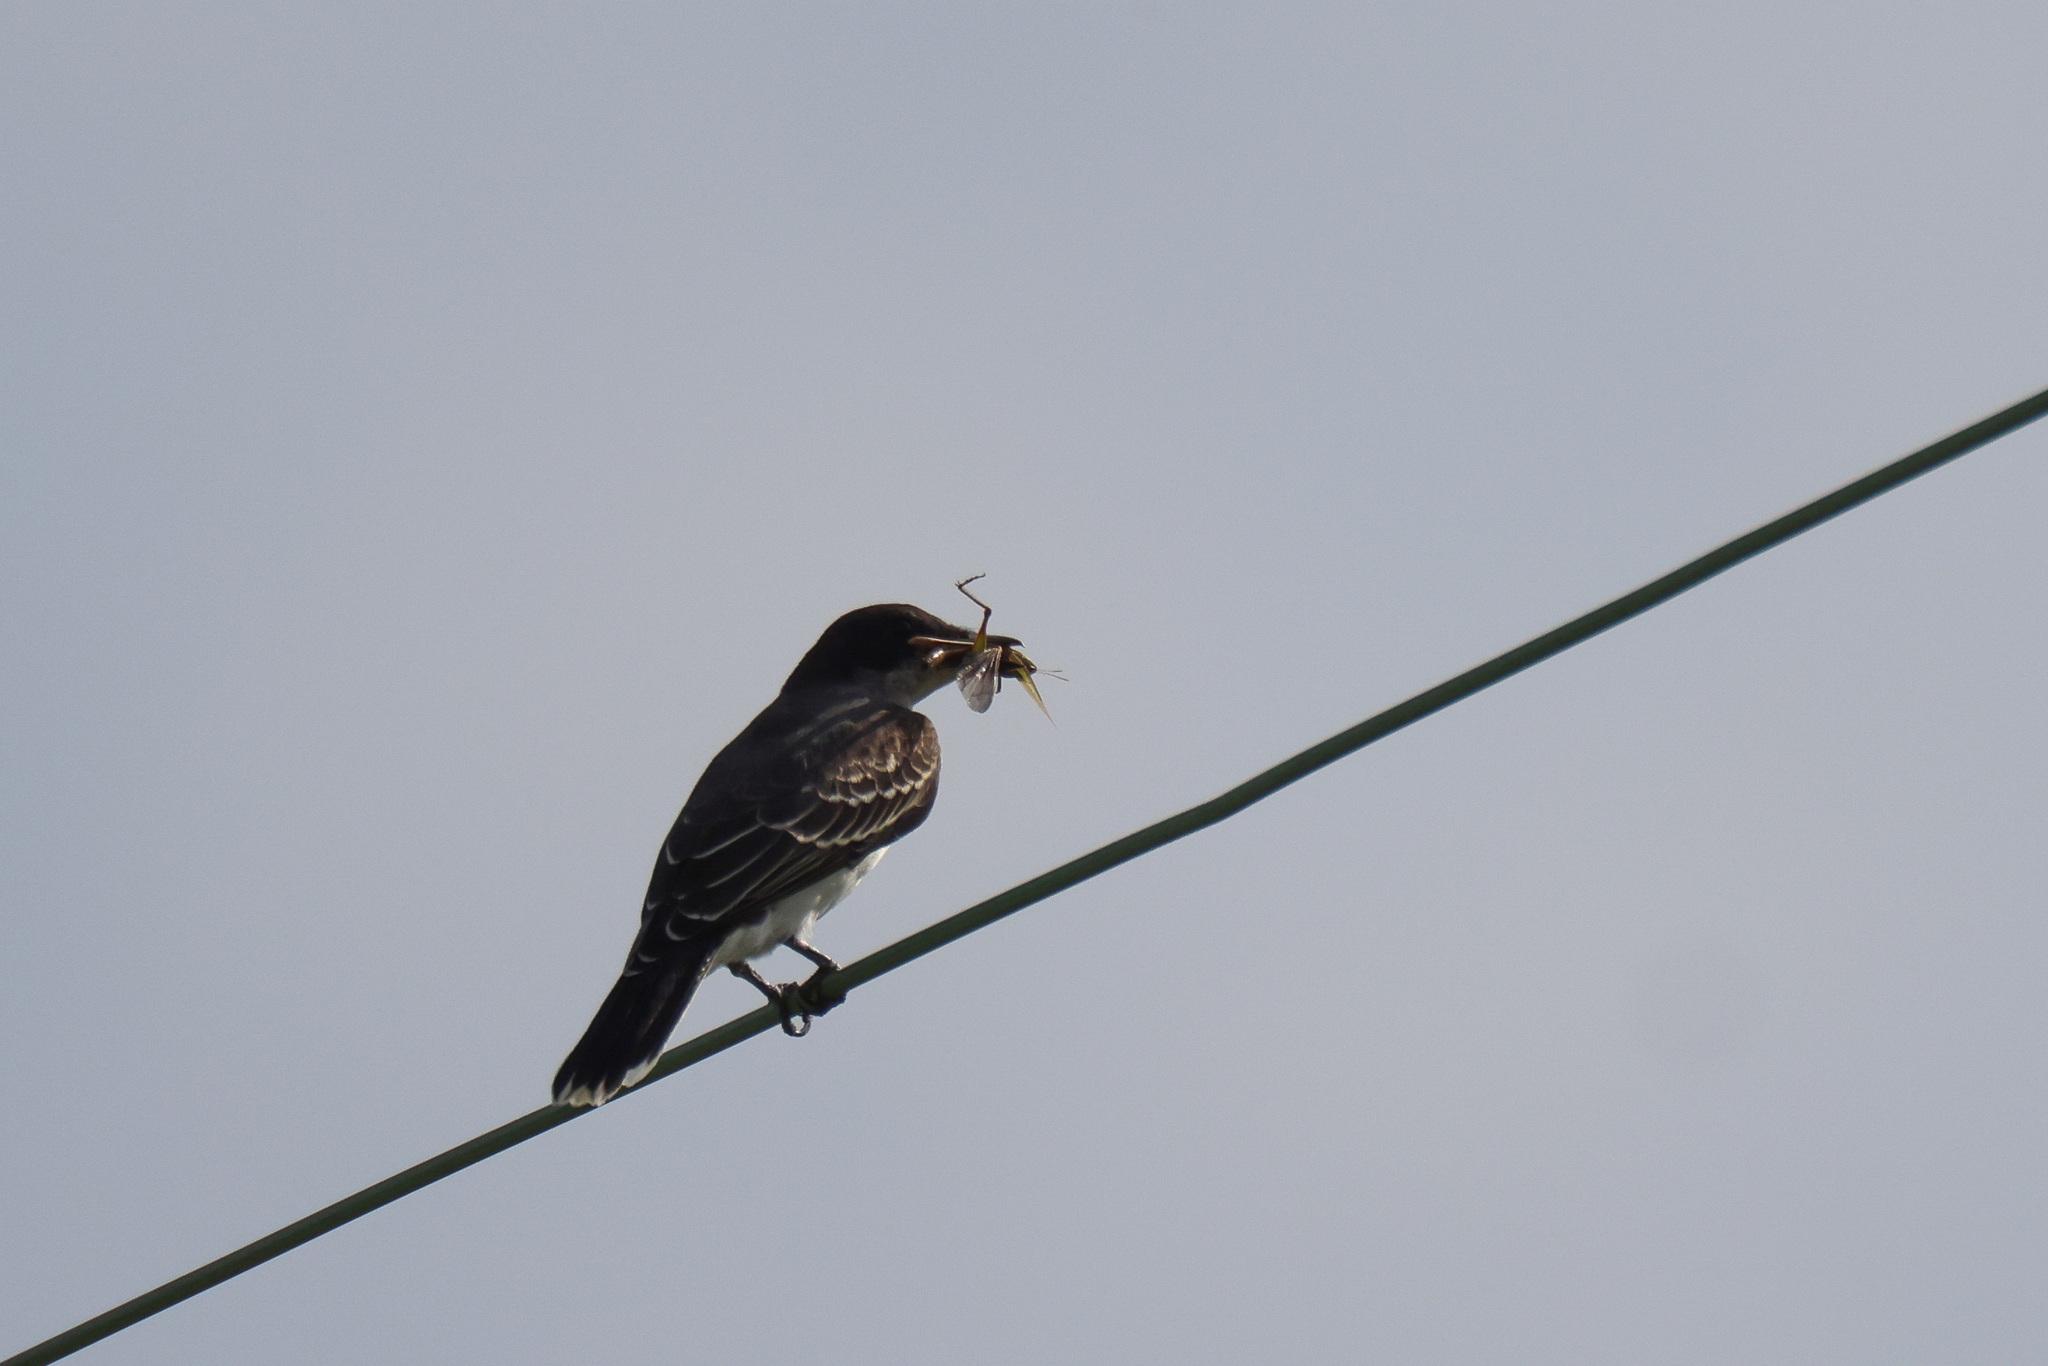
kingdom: Animalia
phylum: Chordata
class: Aves
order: Passeriformes
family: Tyrannidae
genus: Tyrannus
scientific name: Tyrannus tyrannus
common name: Eastern kingbird
